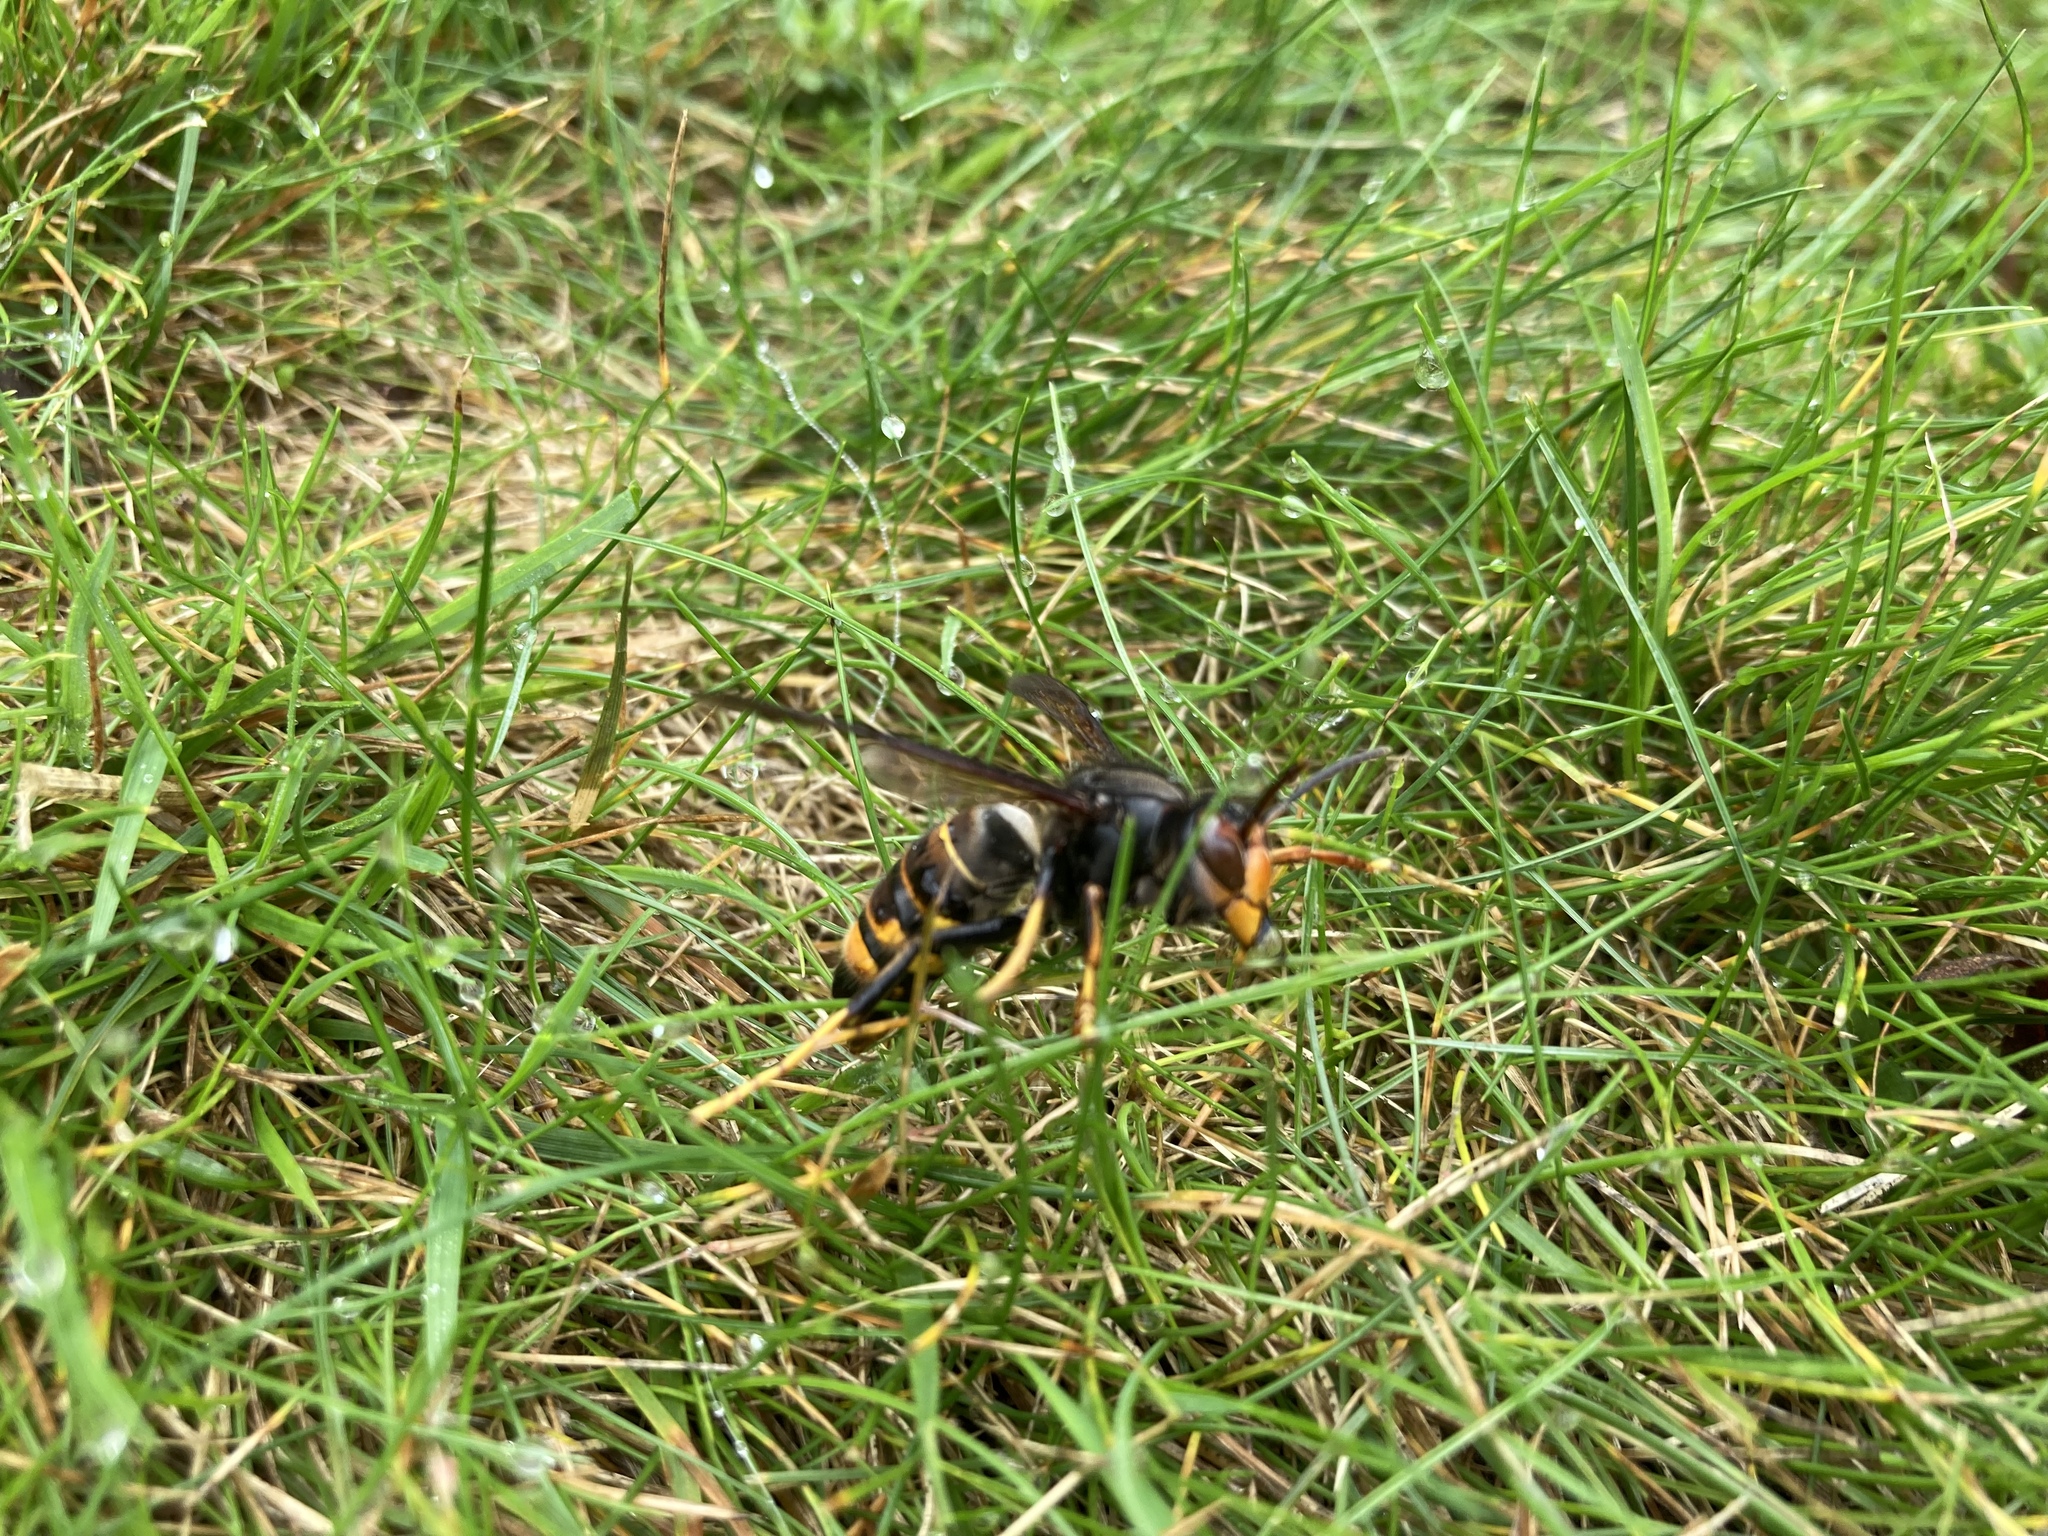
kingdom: Animalia
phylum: Arthropoda
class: Insecta
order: Hymenoptera
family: Vespidae
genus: Vespa
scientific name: Vespa velutina
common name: Asian hornet
